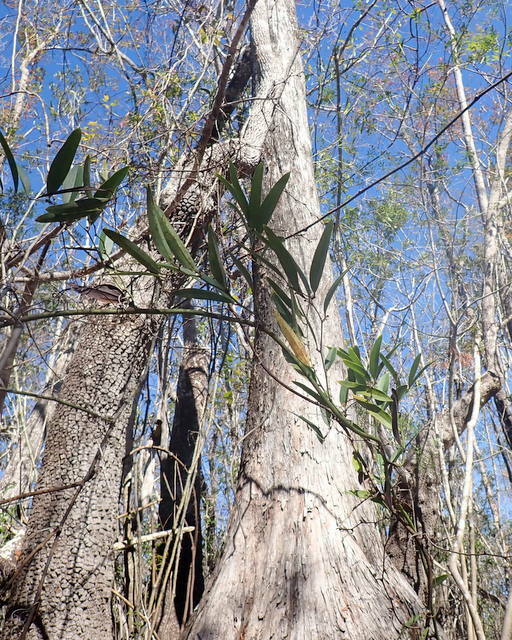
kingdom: Plantae
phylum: Tracheophyta
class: Liliopsida
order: Liliales
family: Smilacaceae
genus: Smilax
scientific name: Smilax laurifolia
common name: Bamboovine
